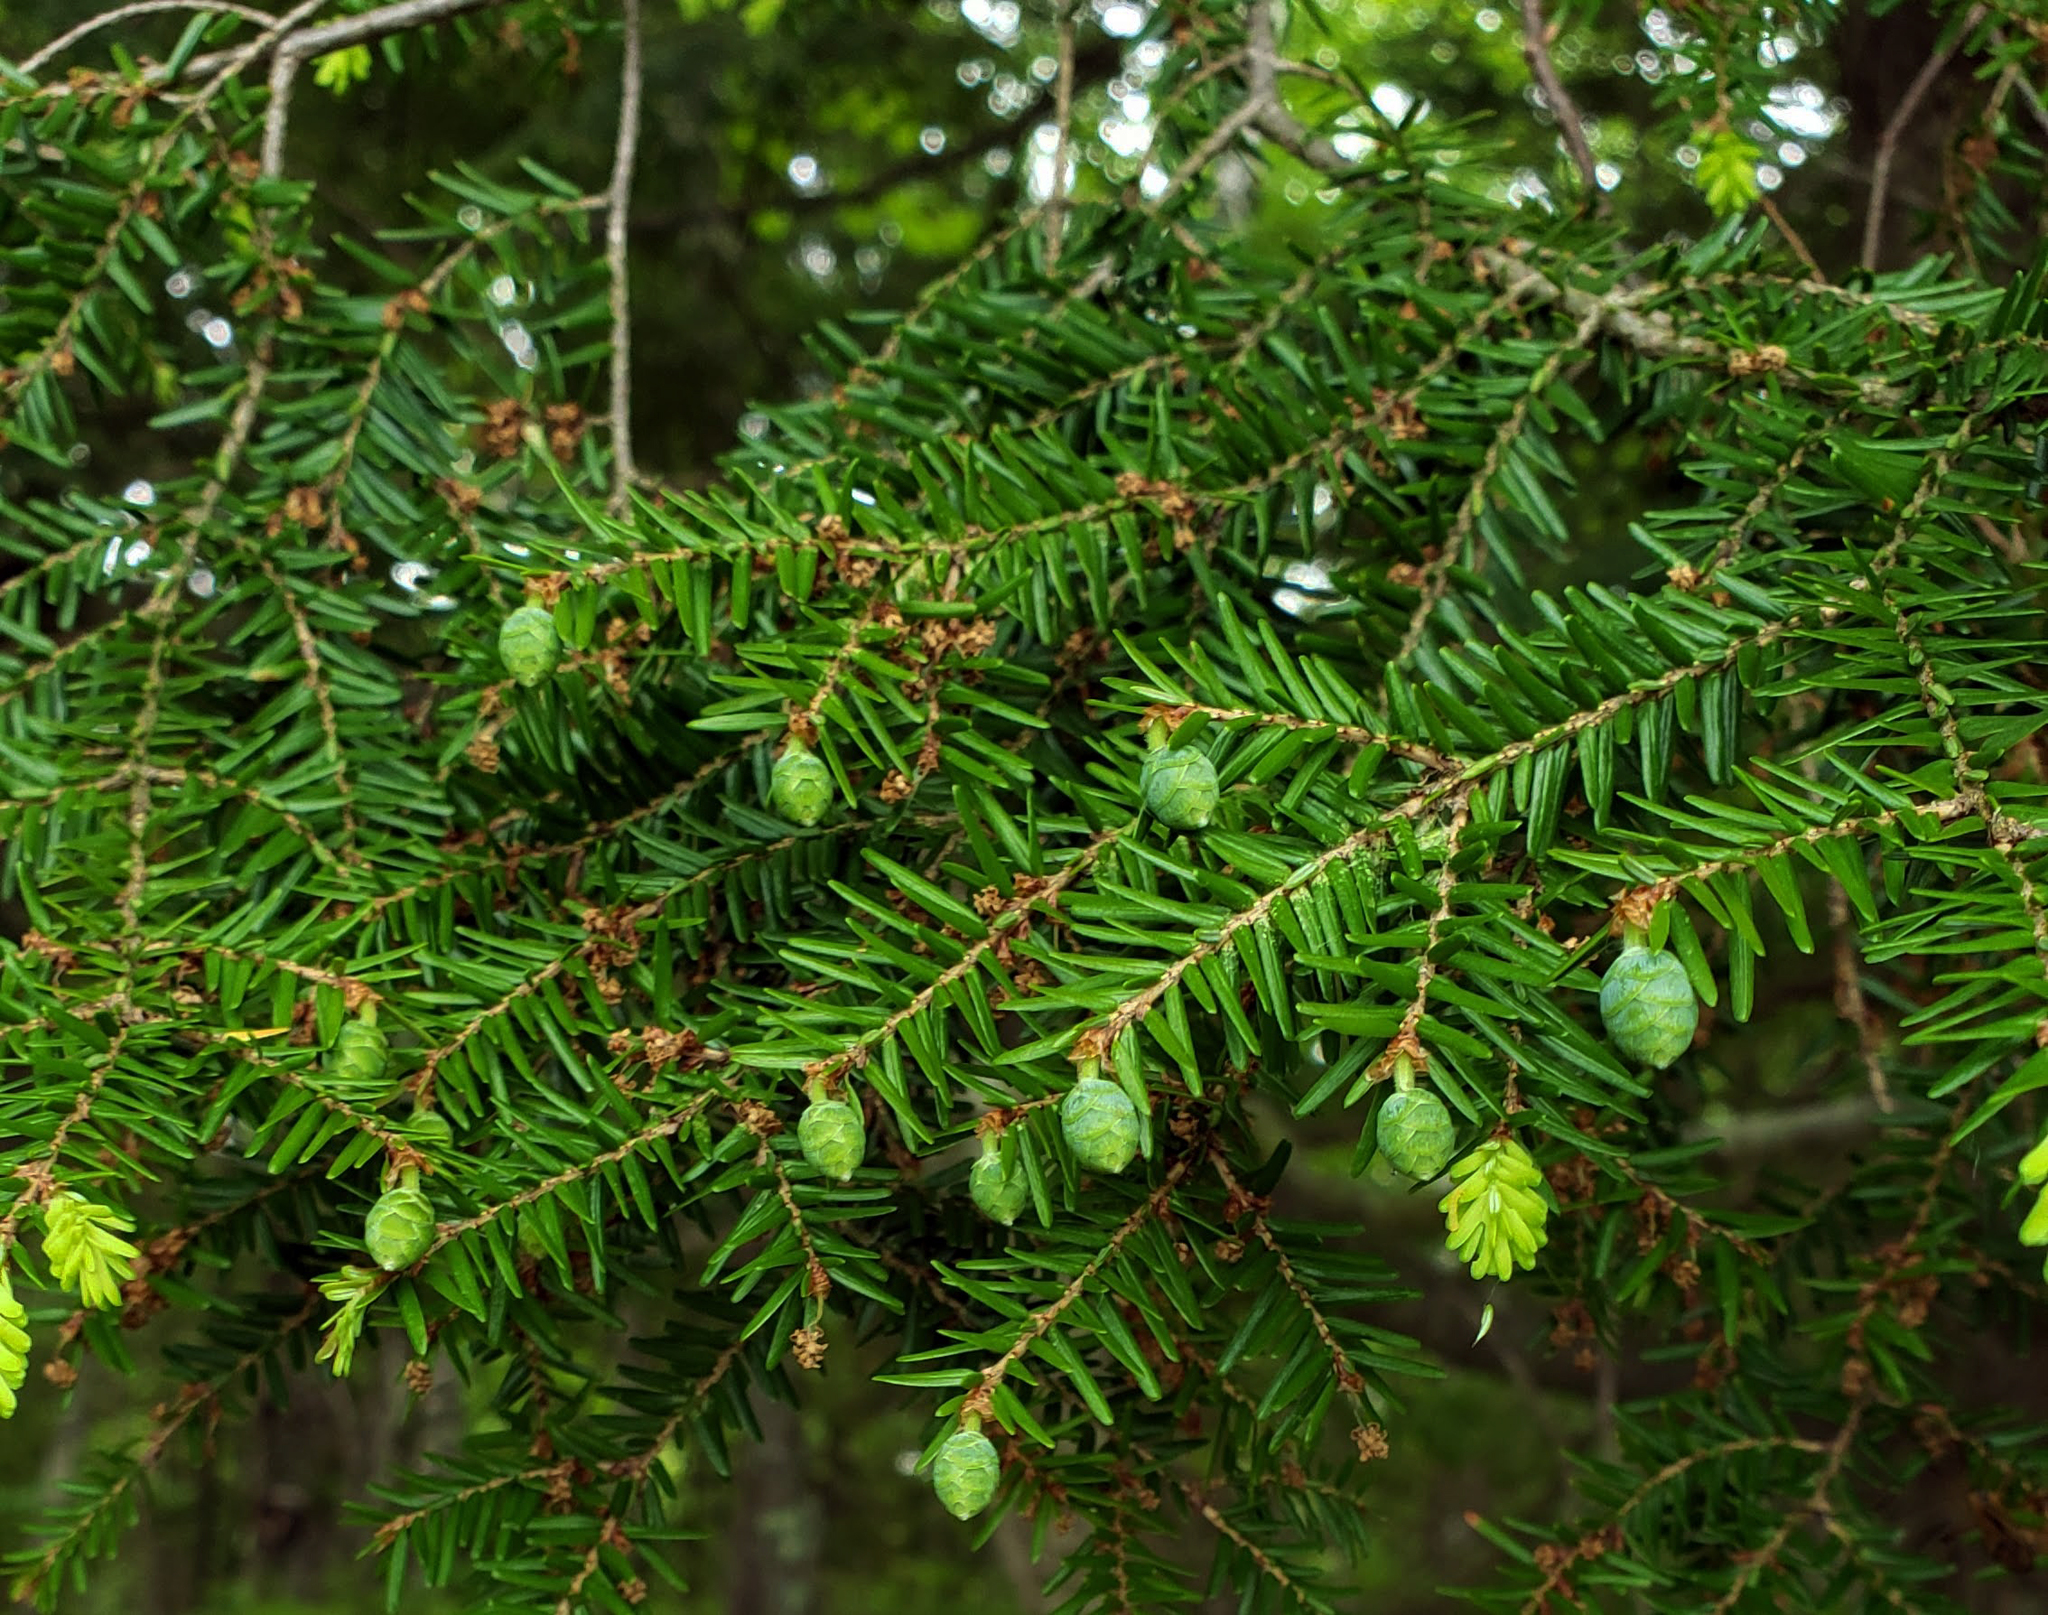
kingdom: Plantae
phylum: Tracheophyta
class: Pinopsida
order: Pinales
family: Pinaceae
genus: Tsuga
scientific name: Tsuga canadensis
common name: Eastern hemlock
